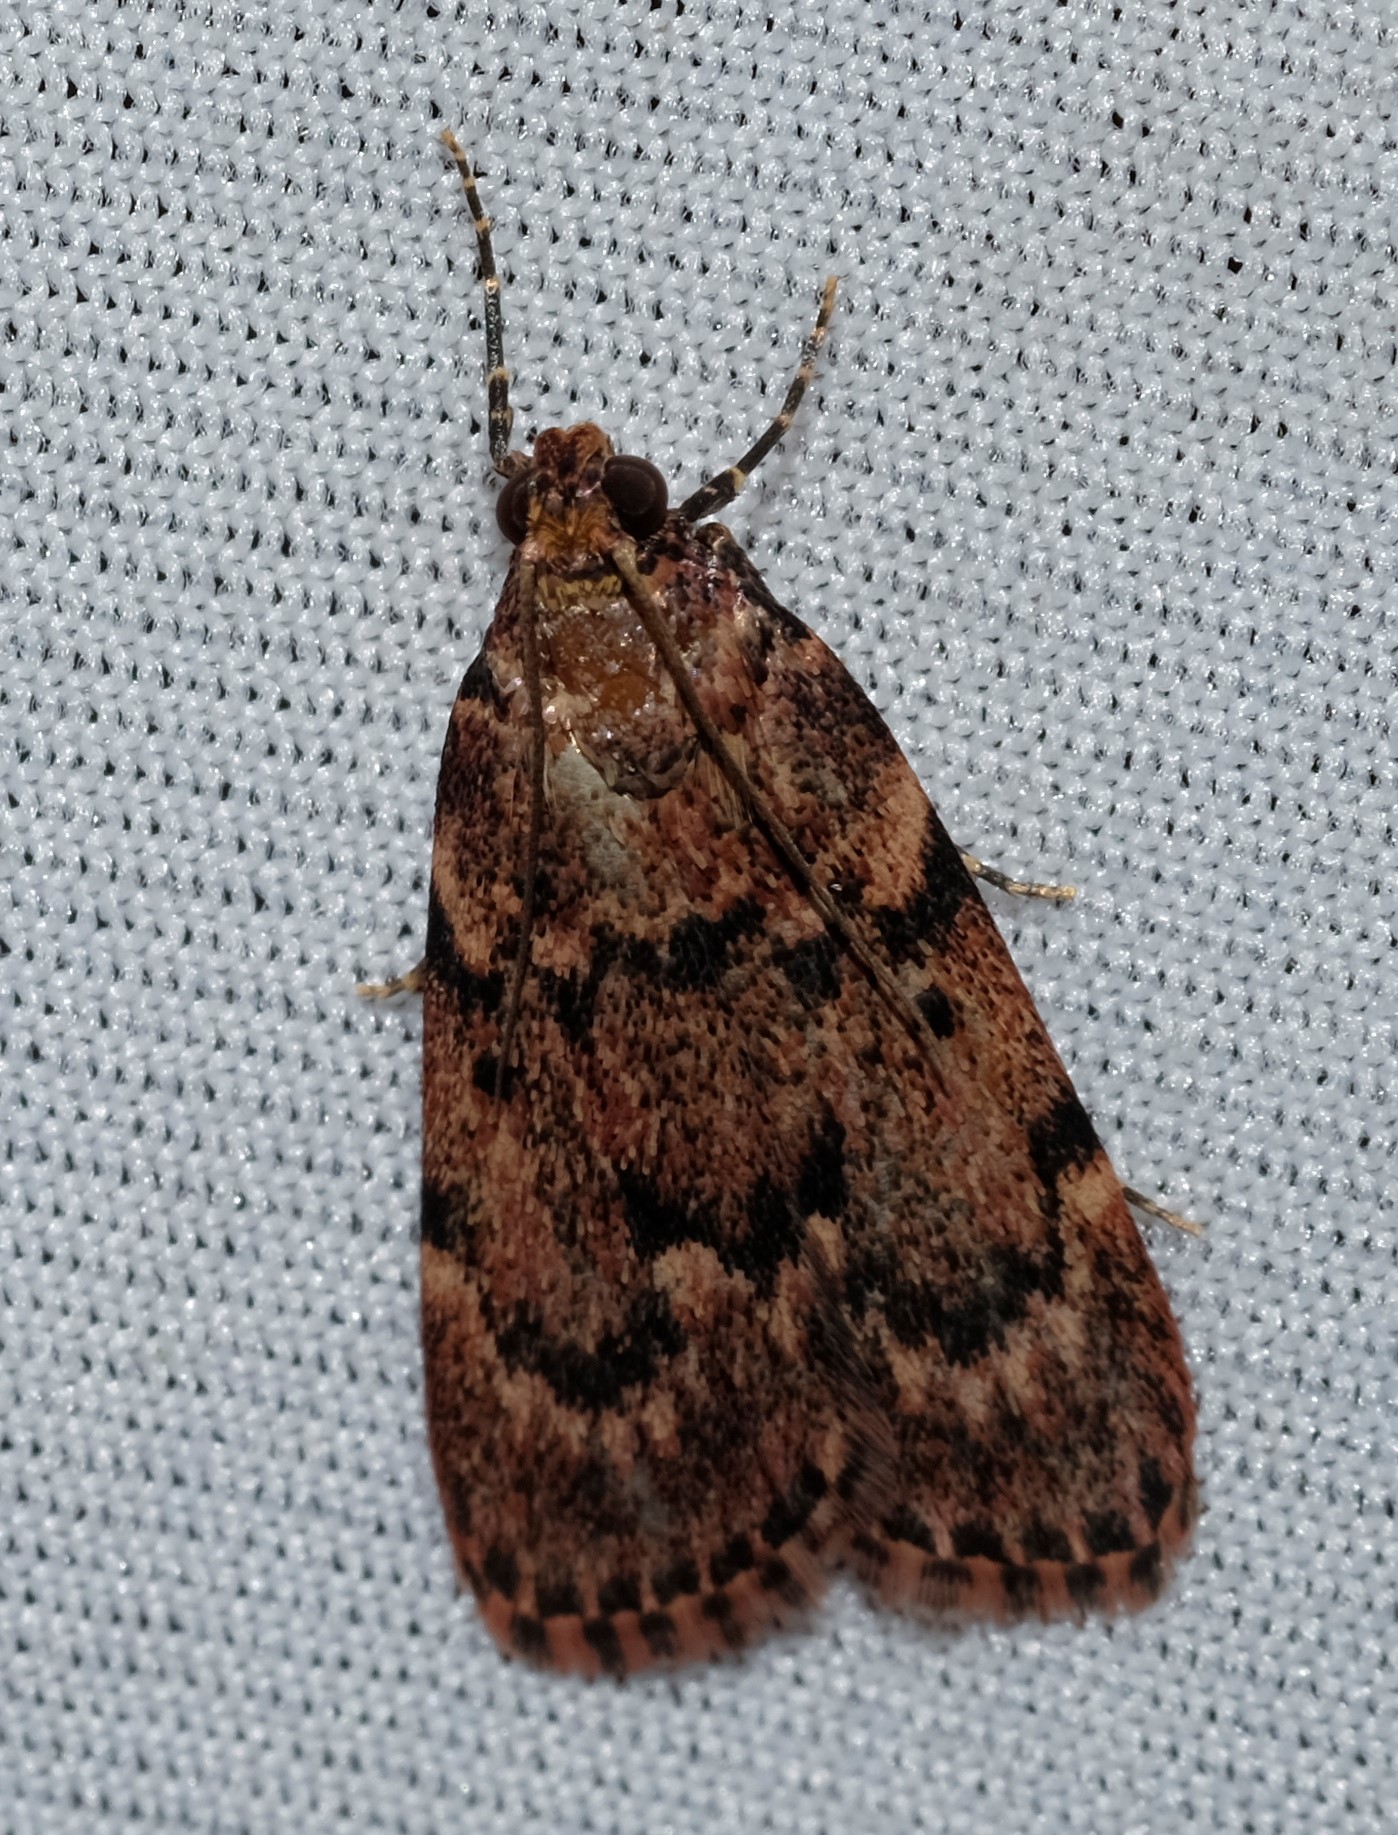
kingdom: Animalia
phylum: Arthropoda
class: Insecta
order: Lepidoptera
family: Pyralidae
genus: Mimaglossa
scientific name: Mimaglossa nauplialis
